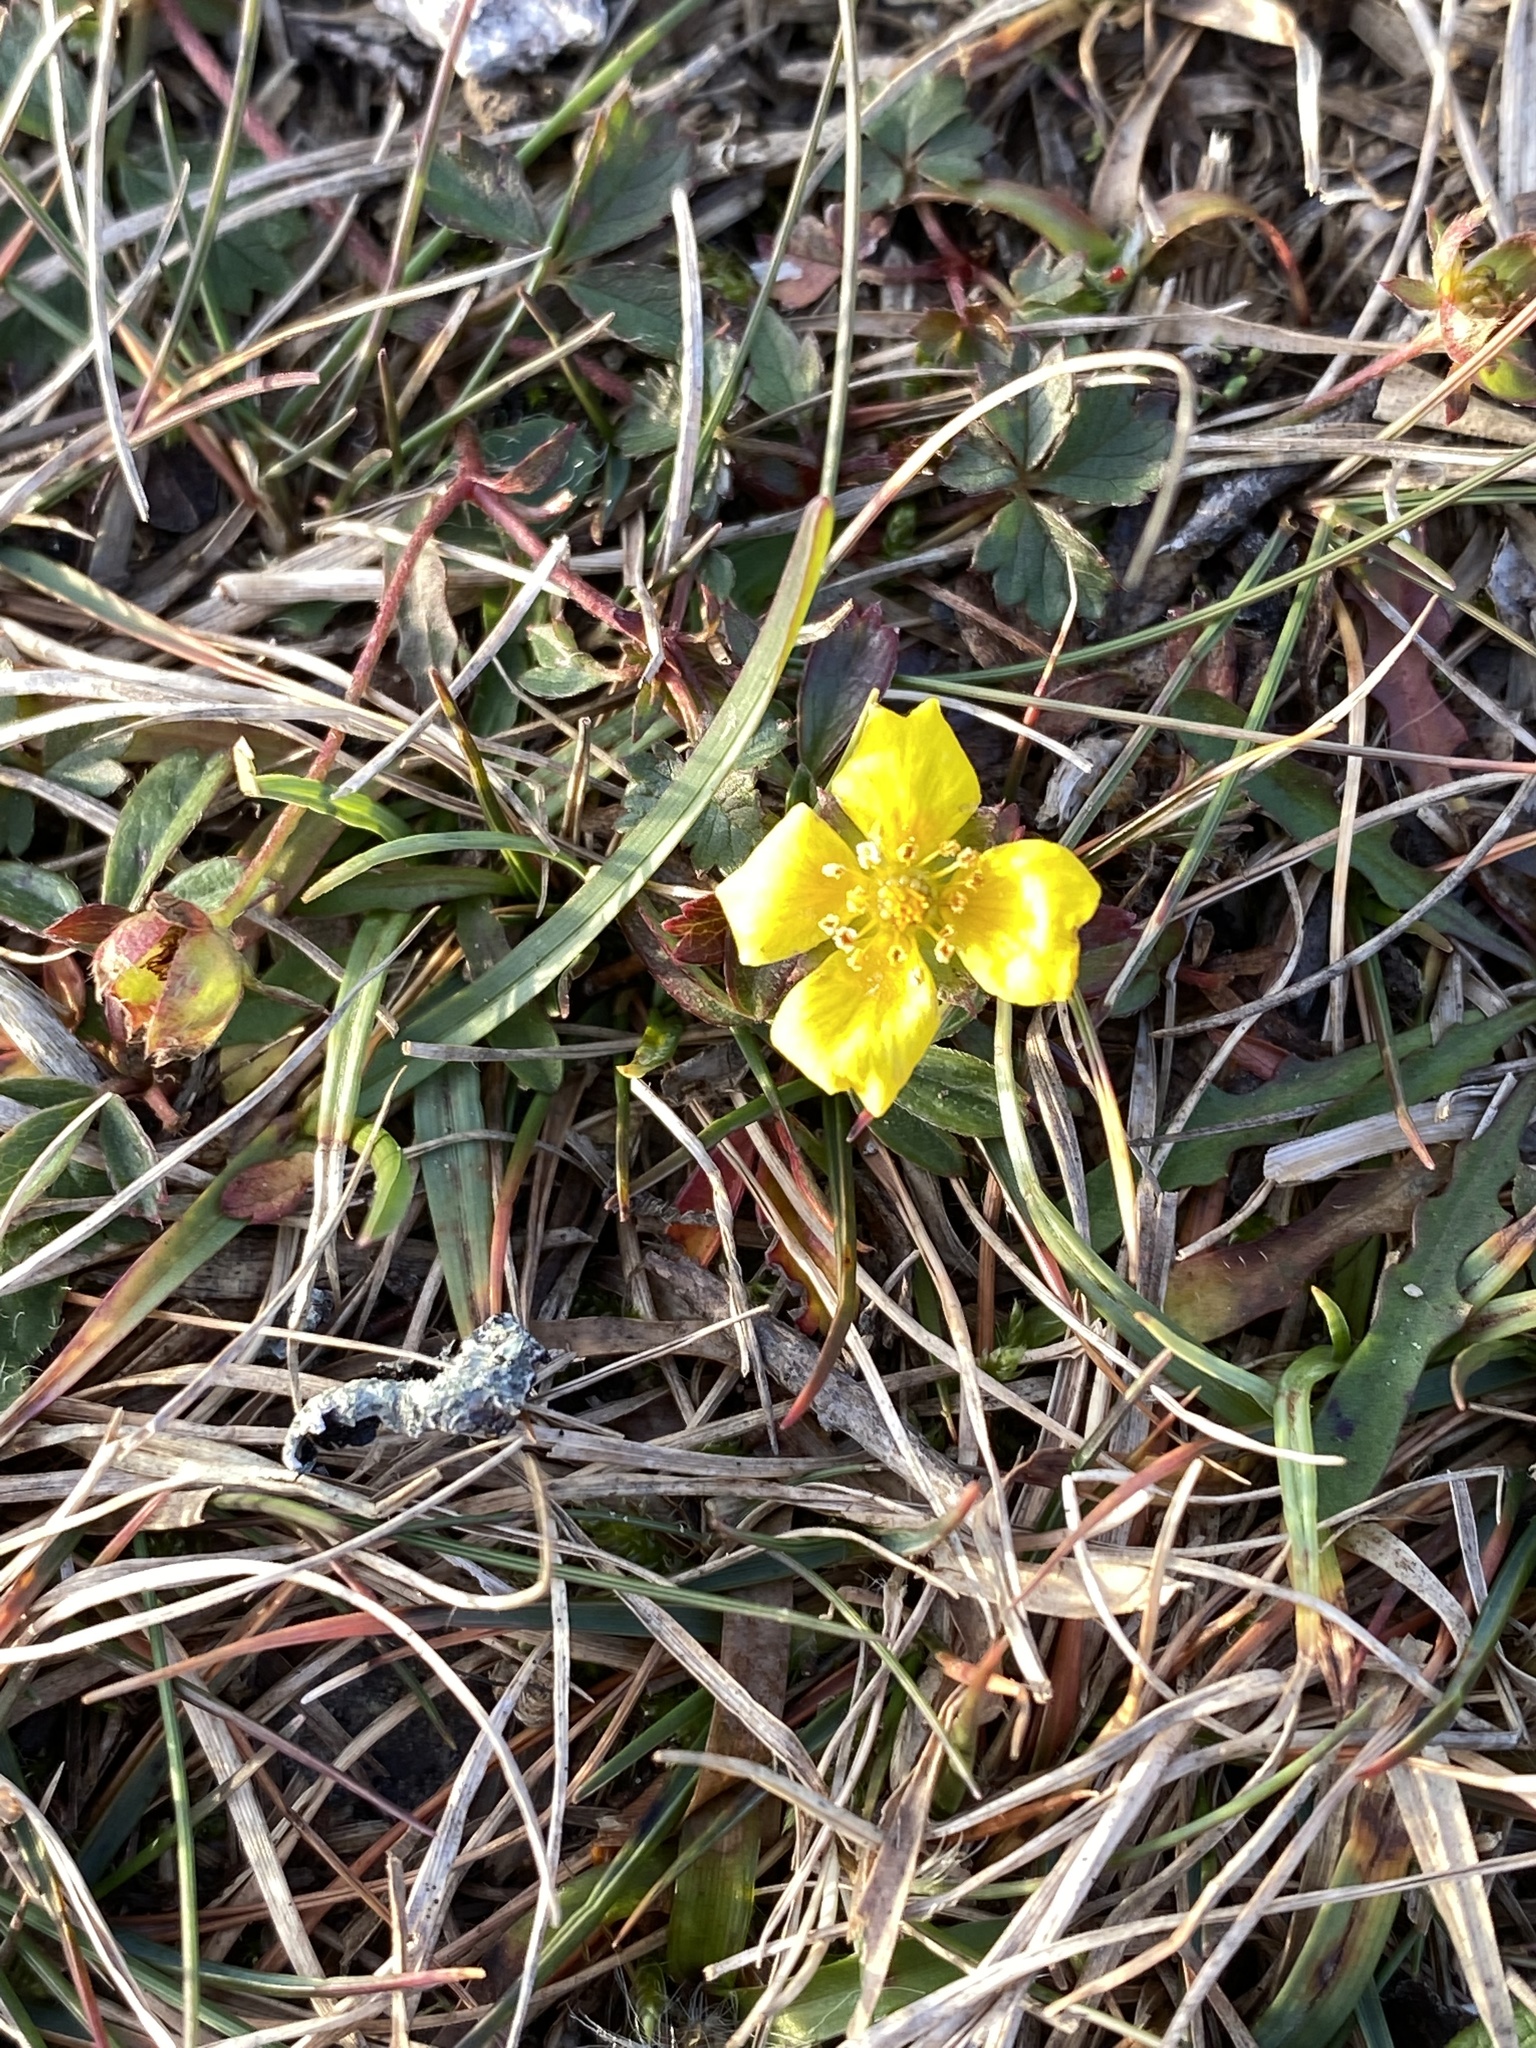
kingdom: Plantae
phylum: Tracheophyta
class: Magnoliopsida
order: Rosales
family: Rosaceae
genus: Potentilla
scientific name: Potentilla anglica
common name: Trailing tormentil
